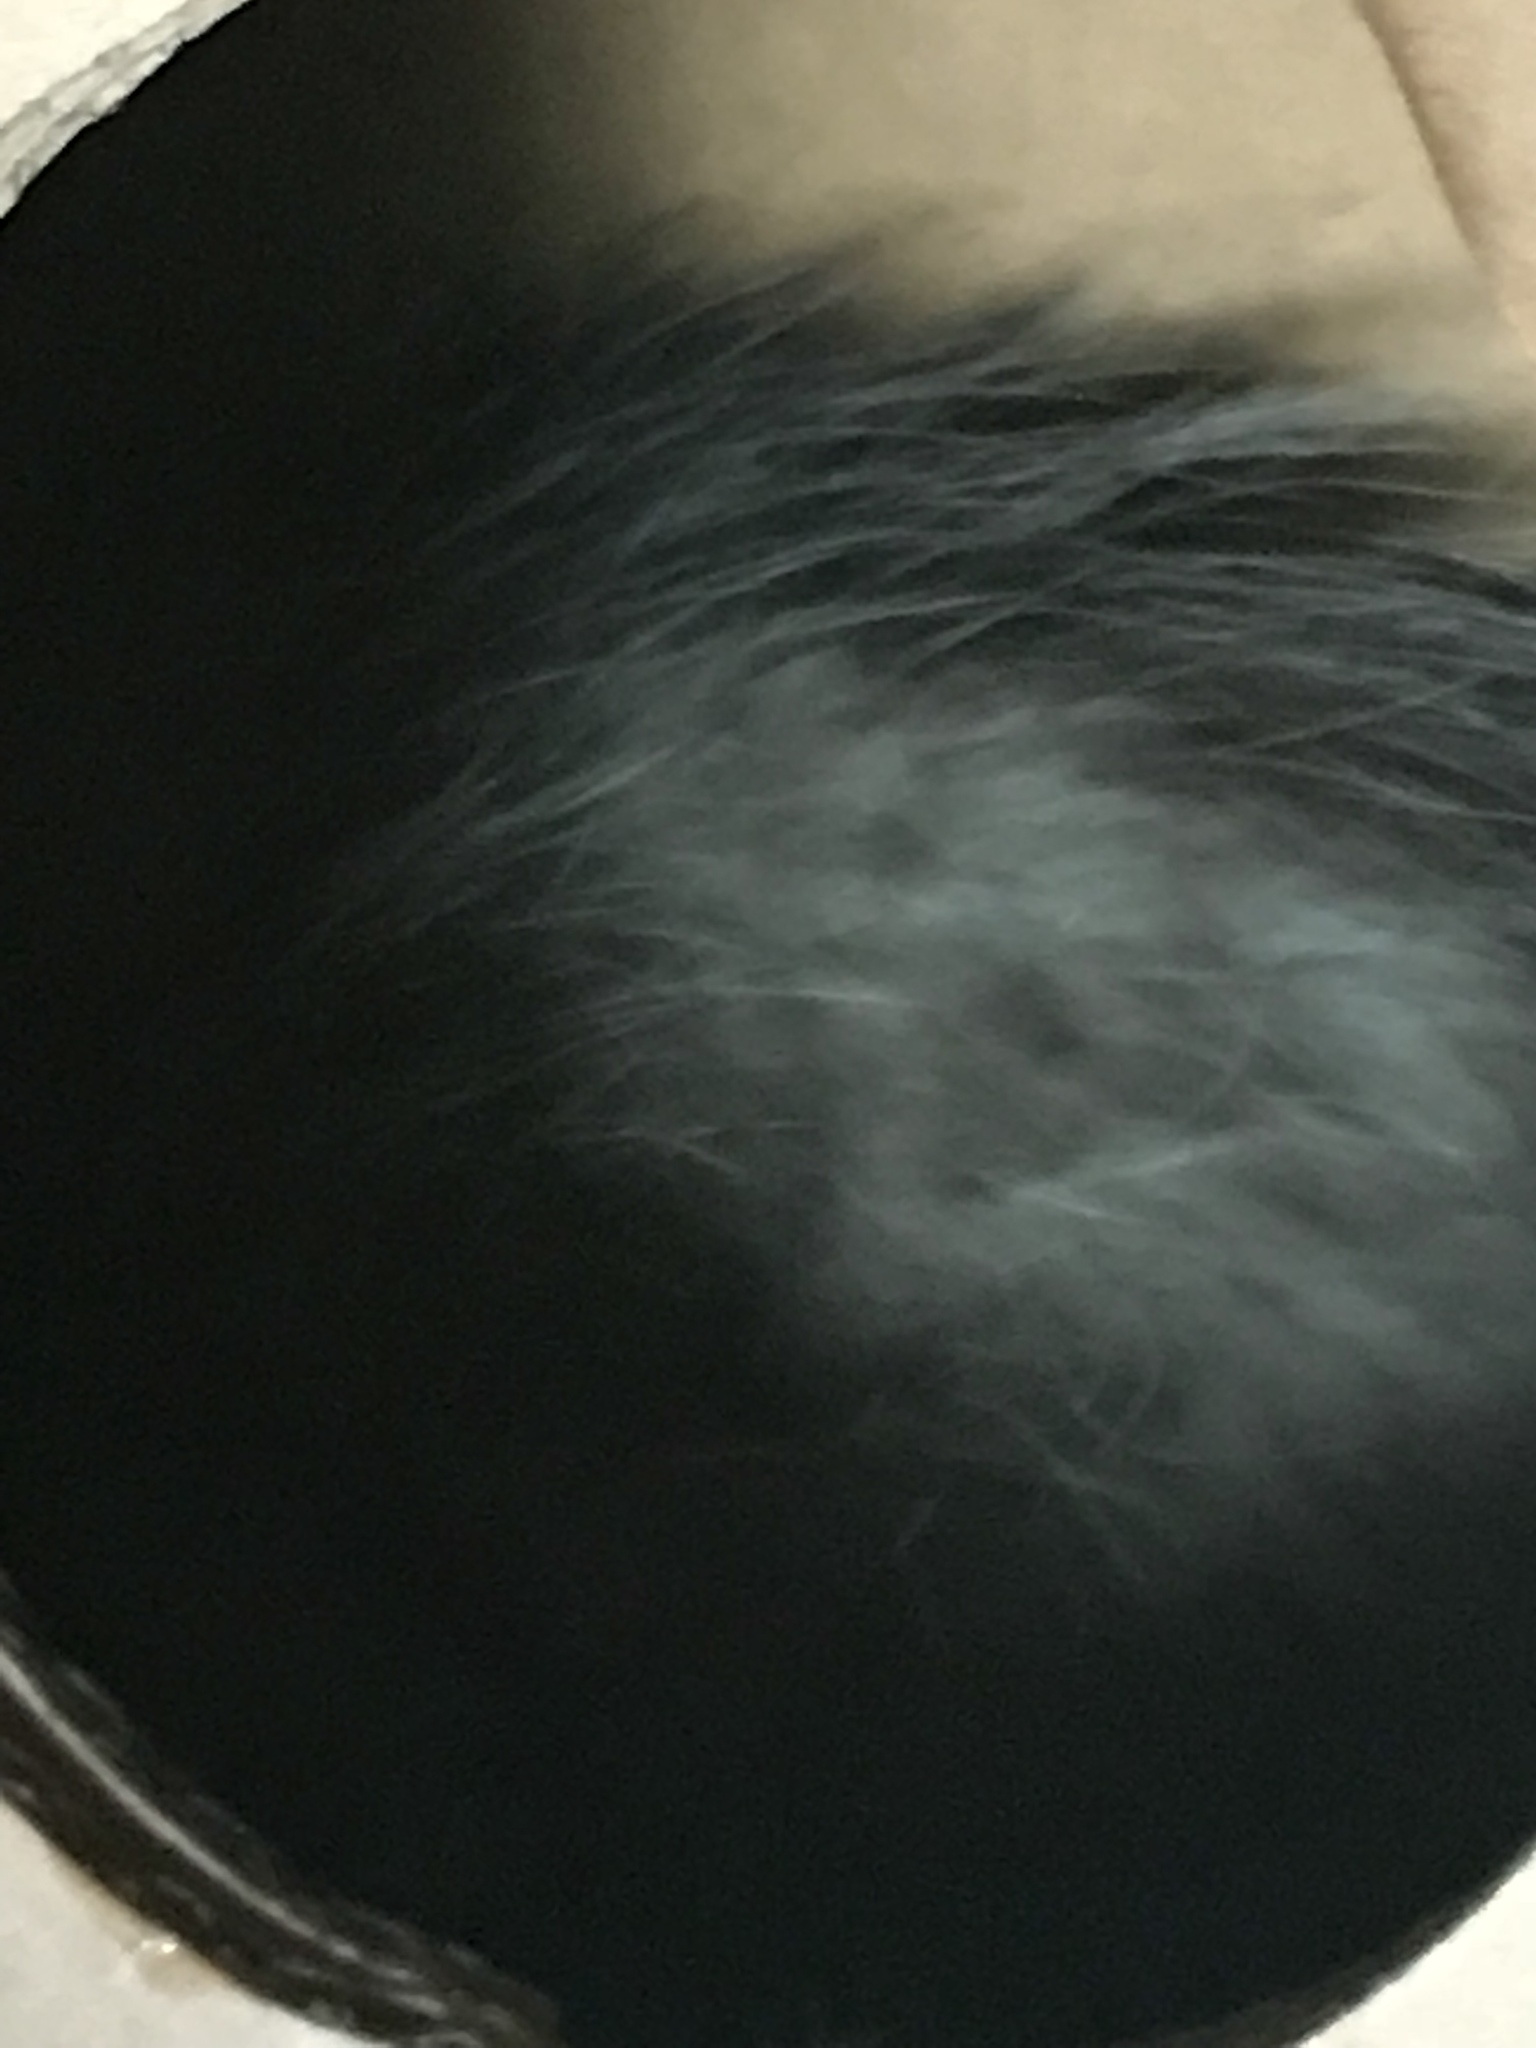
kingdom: Animalia
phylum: Chordata
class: Mammalia
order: Didelphimorphia
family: Didelphidae
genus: Didelphis
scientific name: Didelphis virginiana
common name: Virginia opossum
